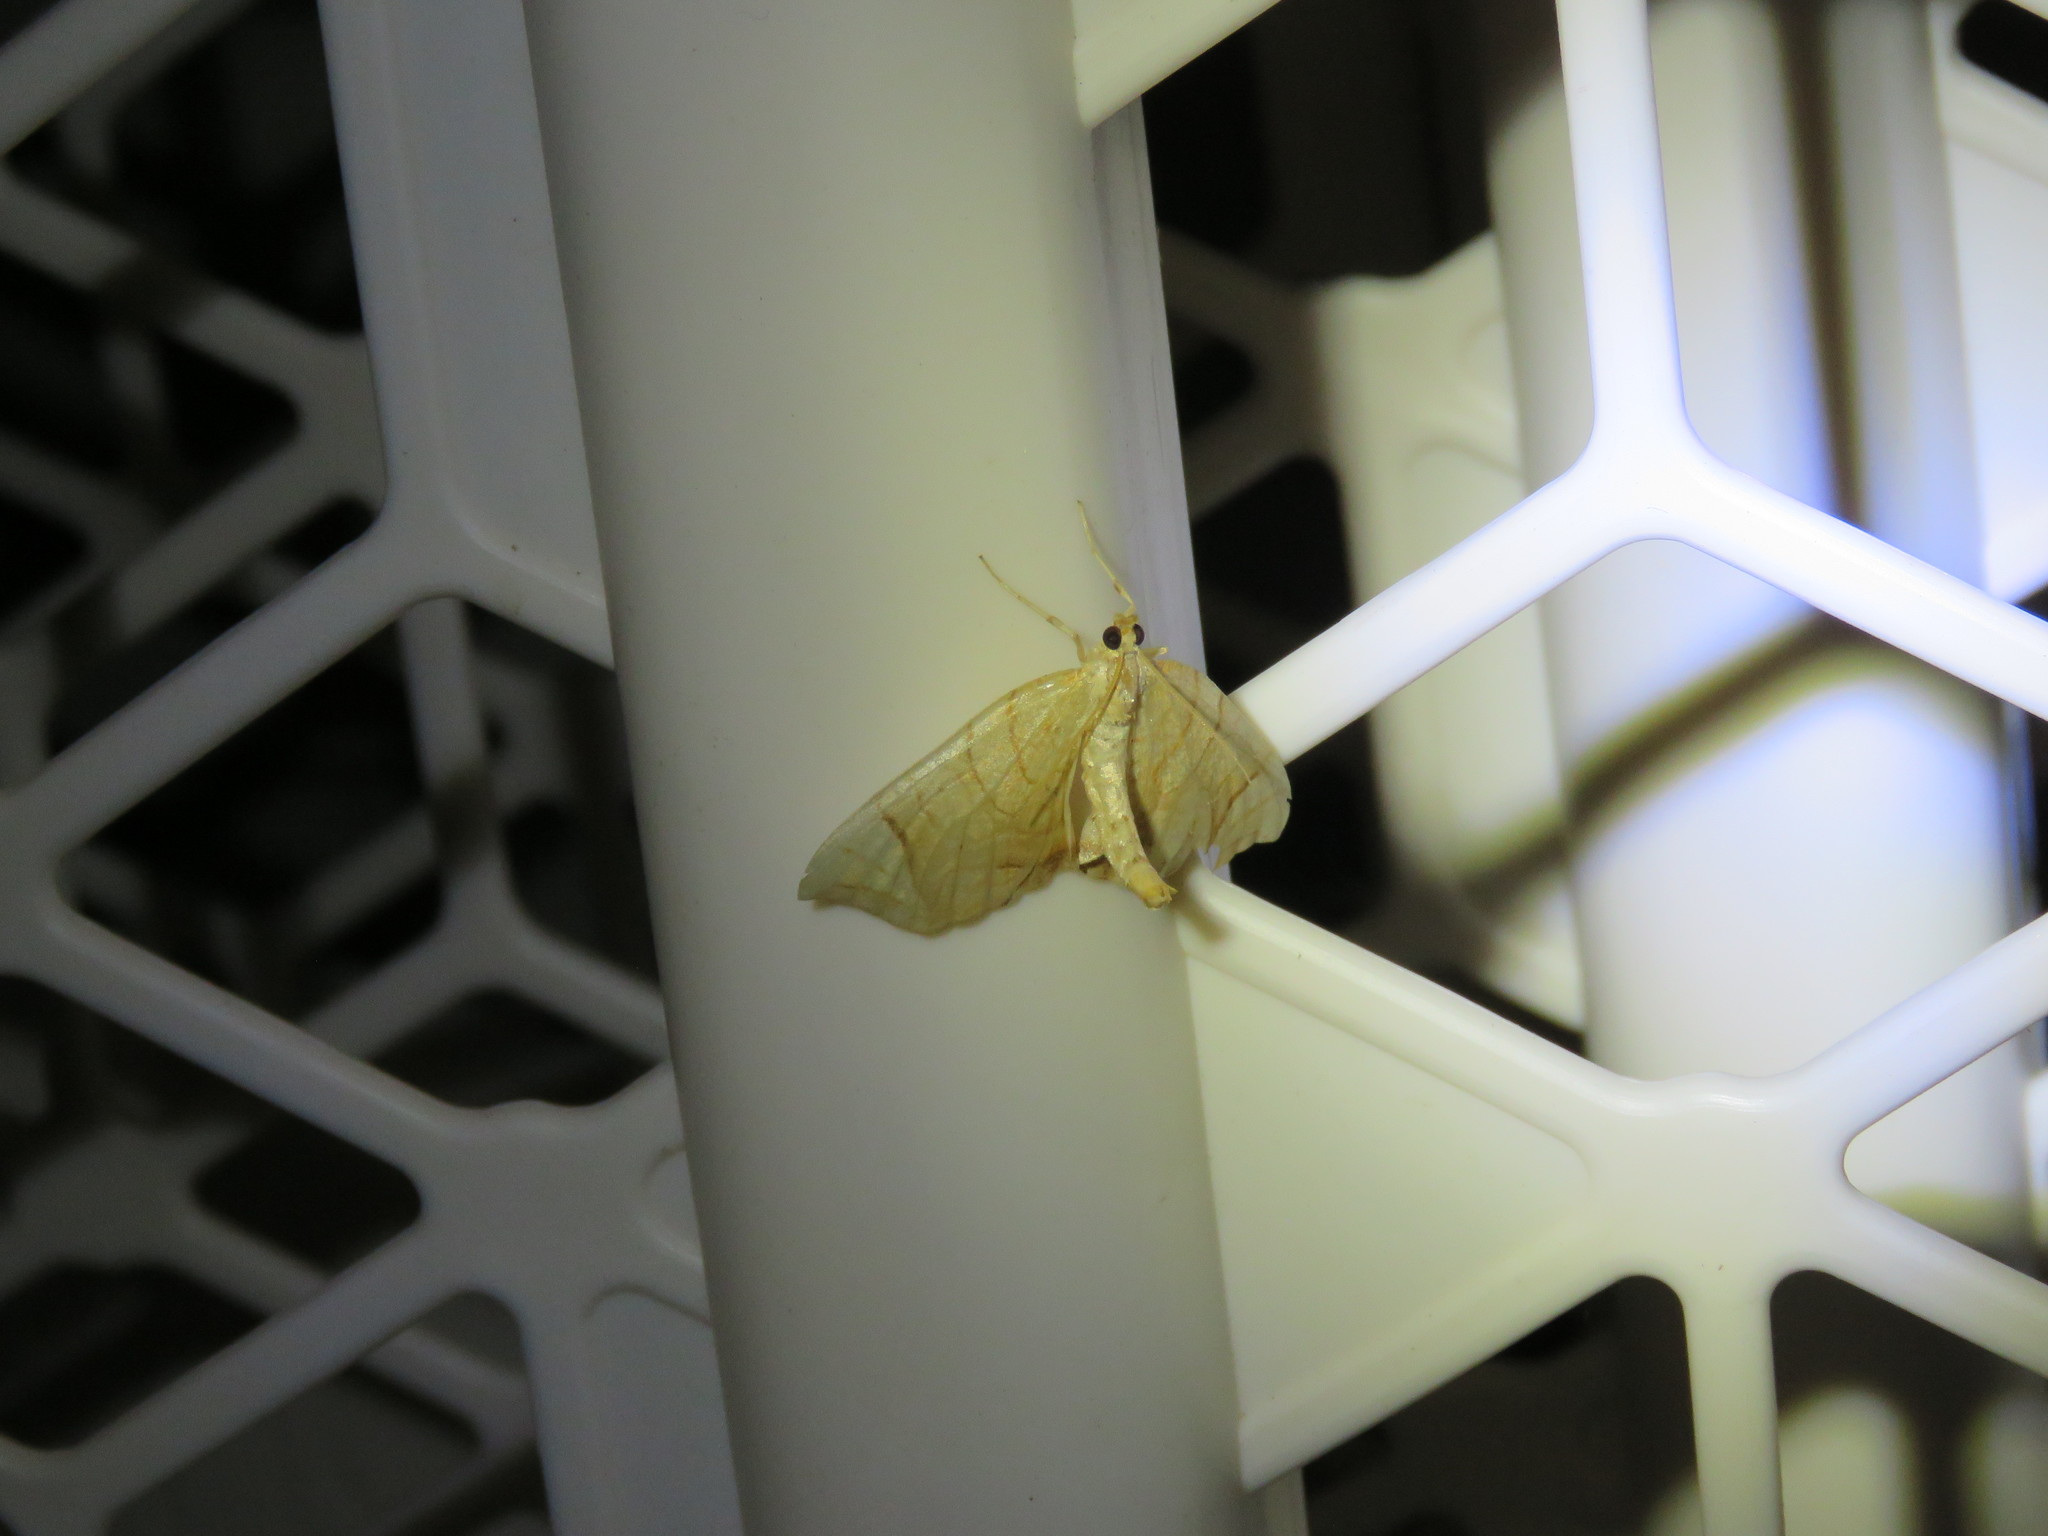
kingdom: Animalia
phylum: Arthropoda
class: Insecta
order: Lepidoptera
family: Geometridae
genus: Eulithis
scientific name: Eulithis
